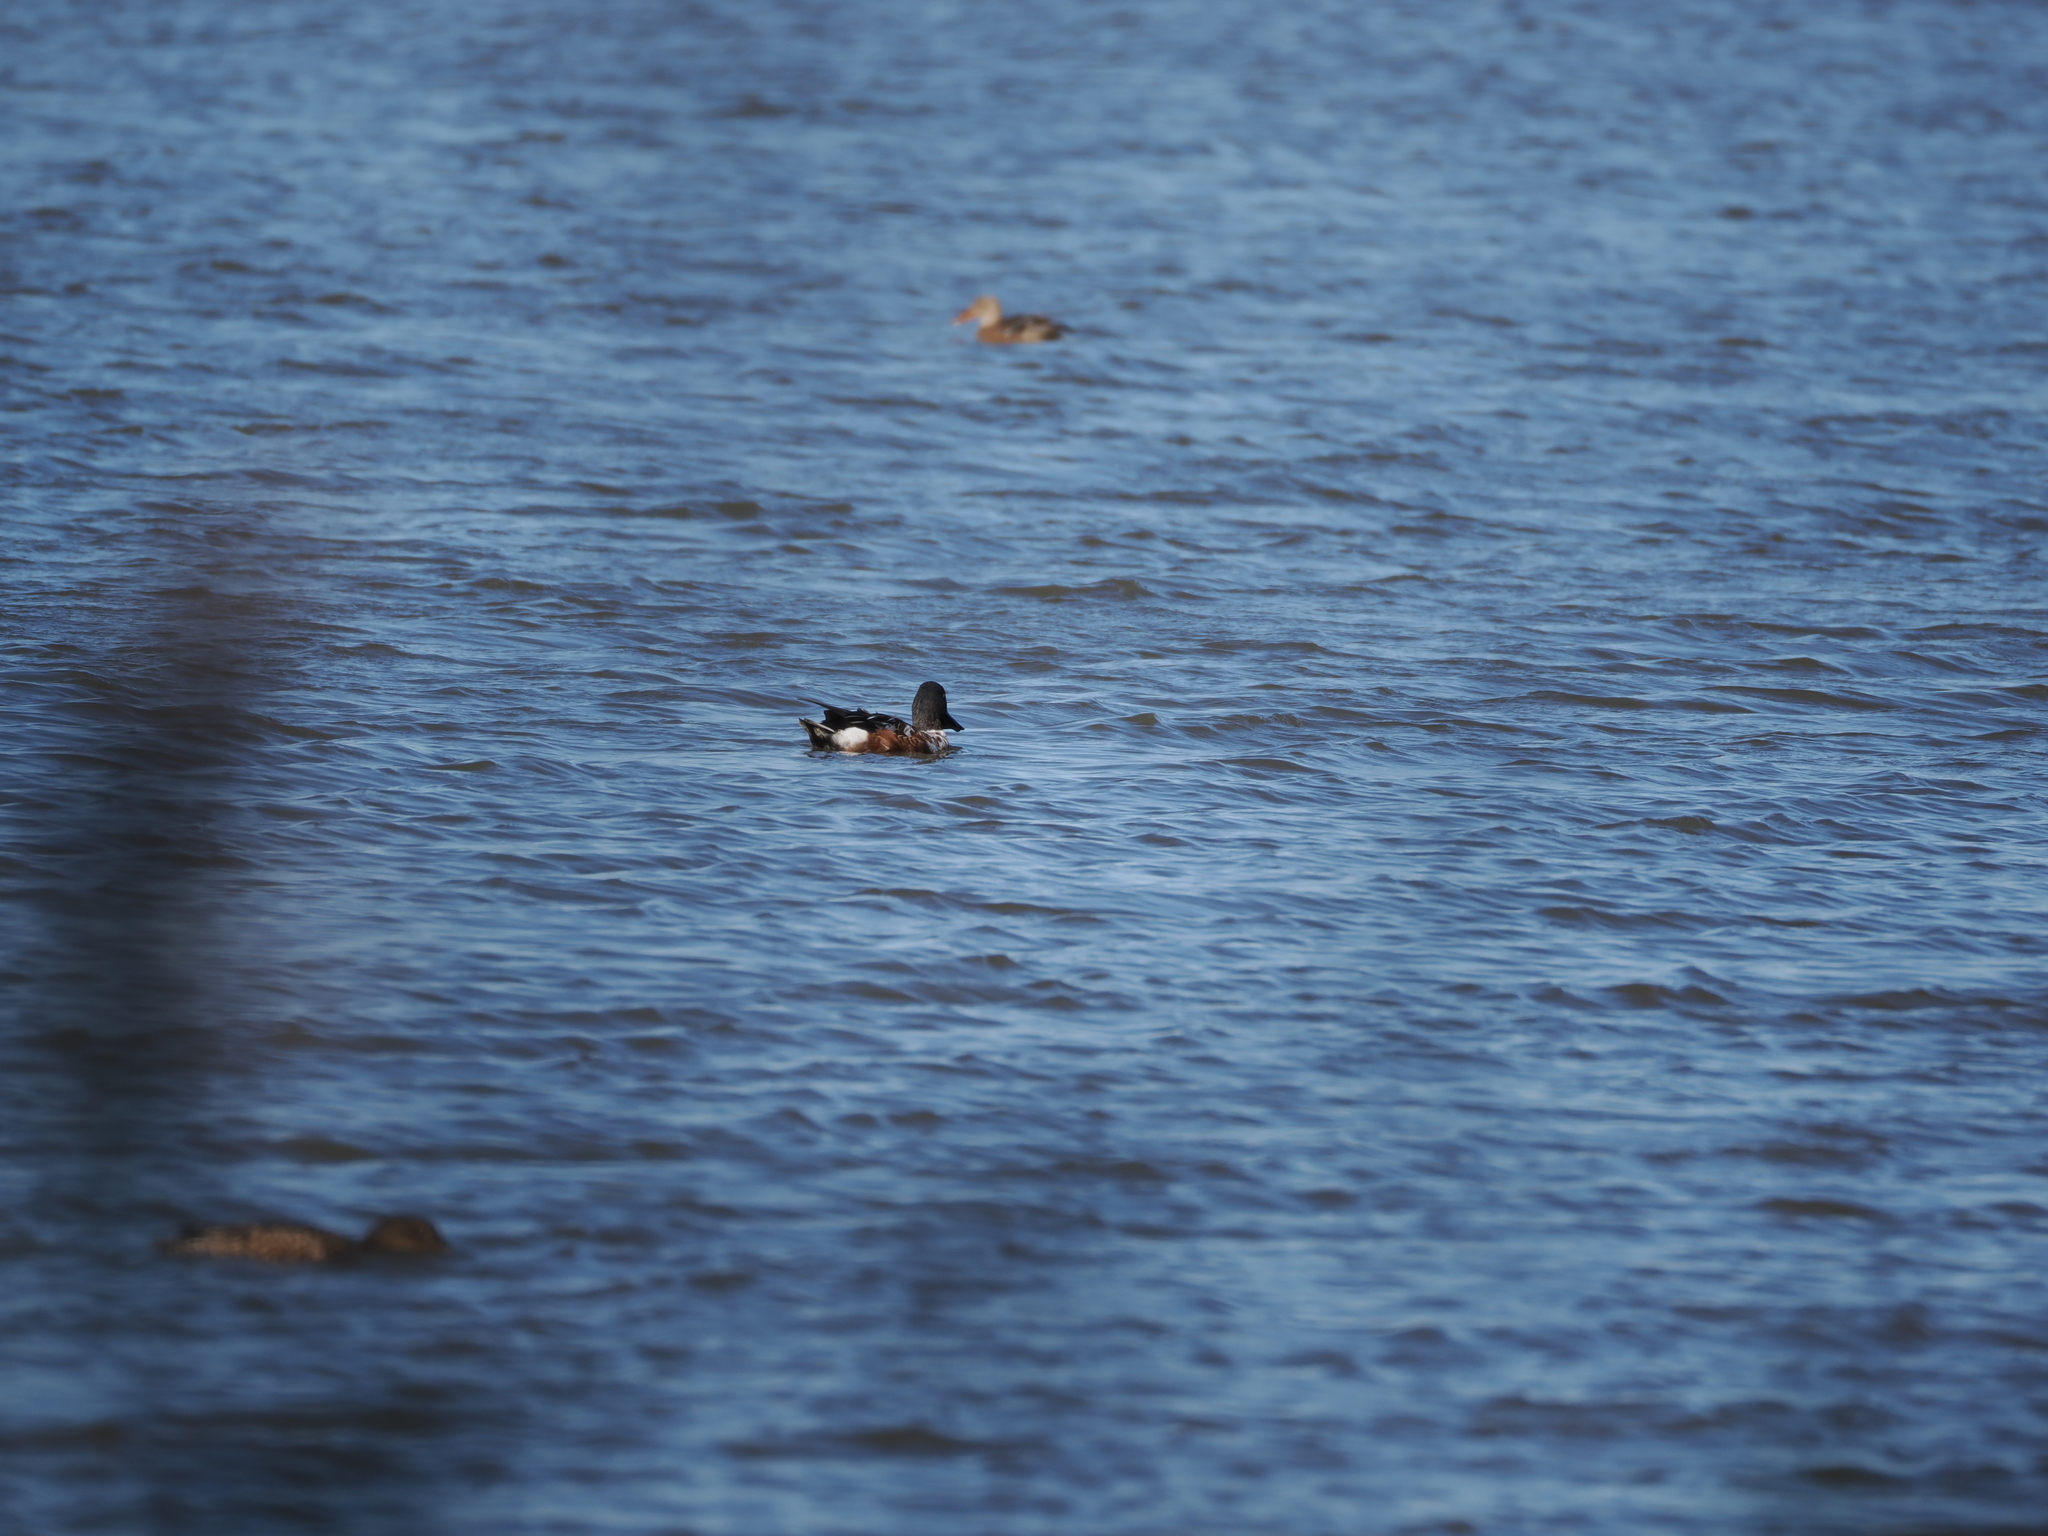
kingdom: Animalia
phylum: Chordata
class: Aves
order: Anseriformes
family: Anatidae
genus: Spatula
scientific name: Spatula clypeata
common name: Northern shoveler
